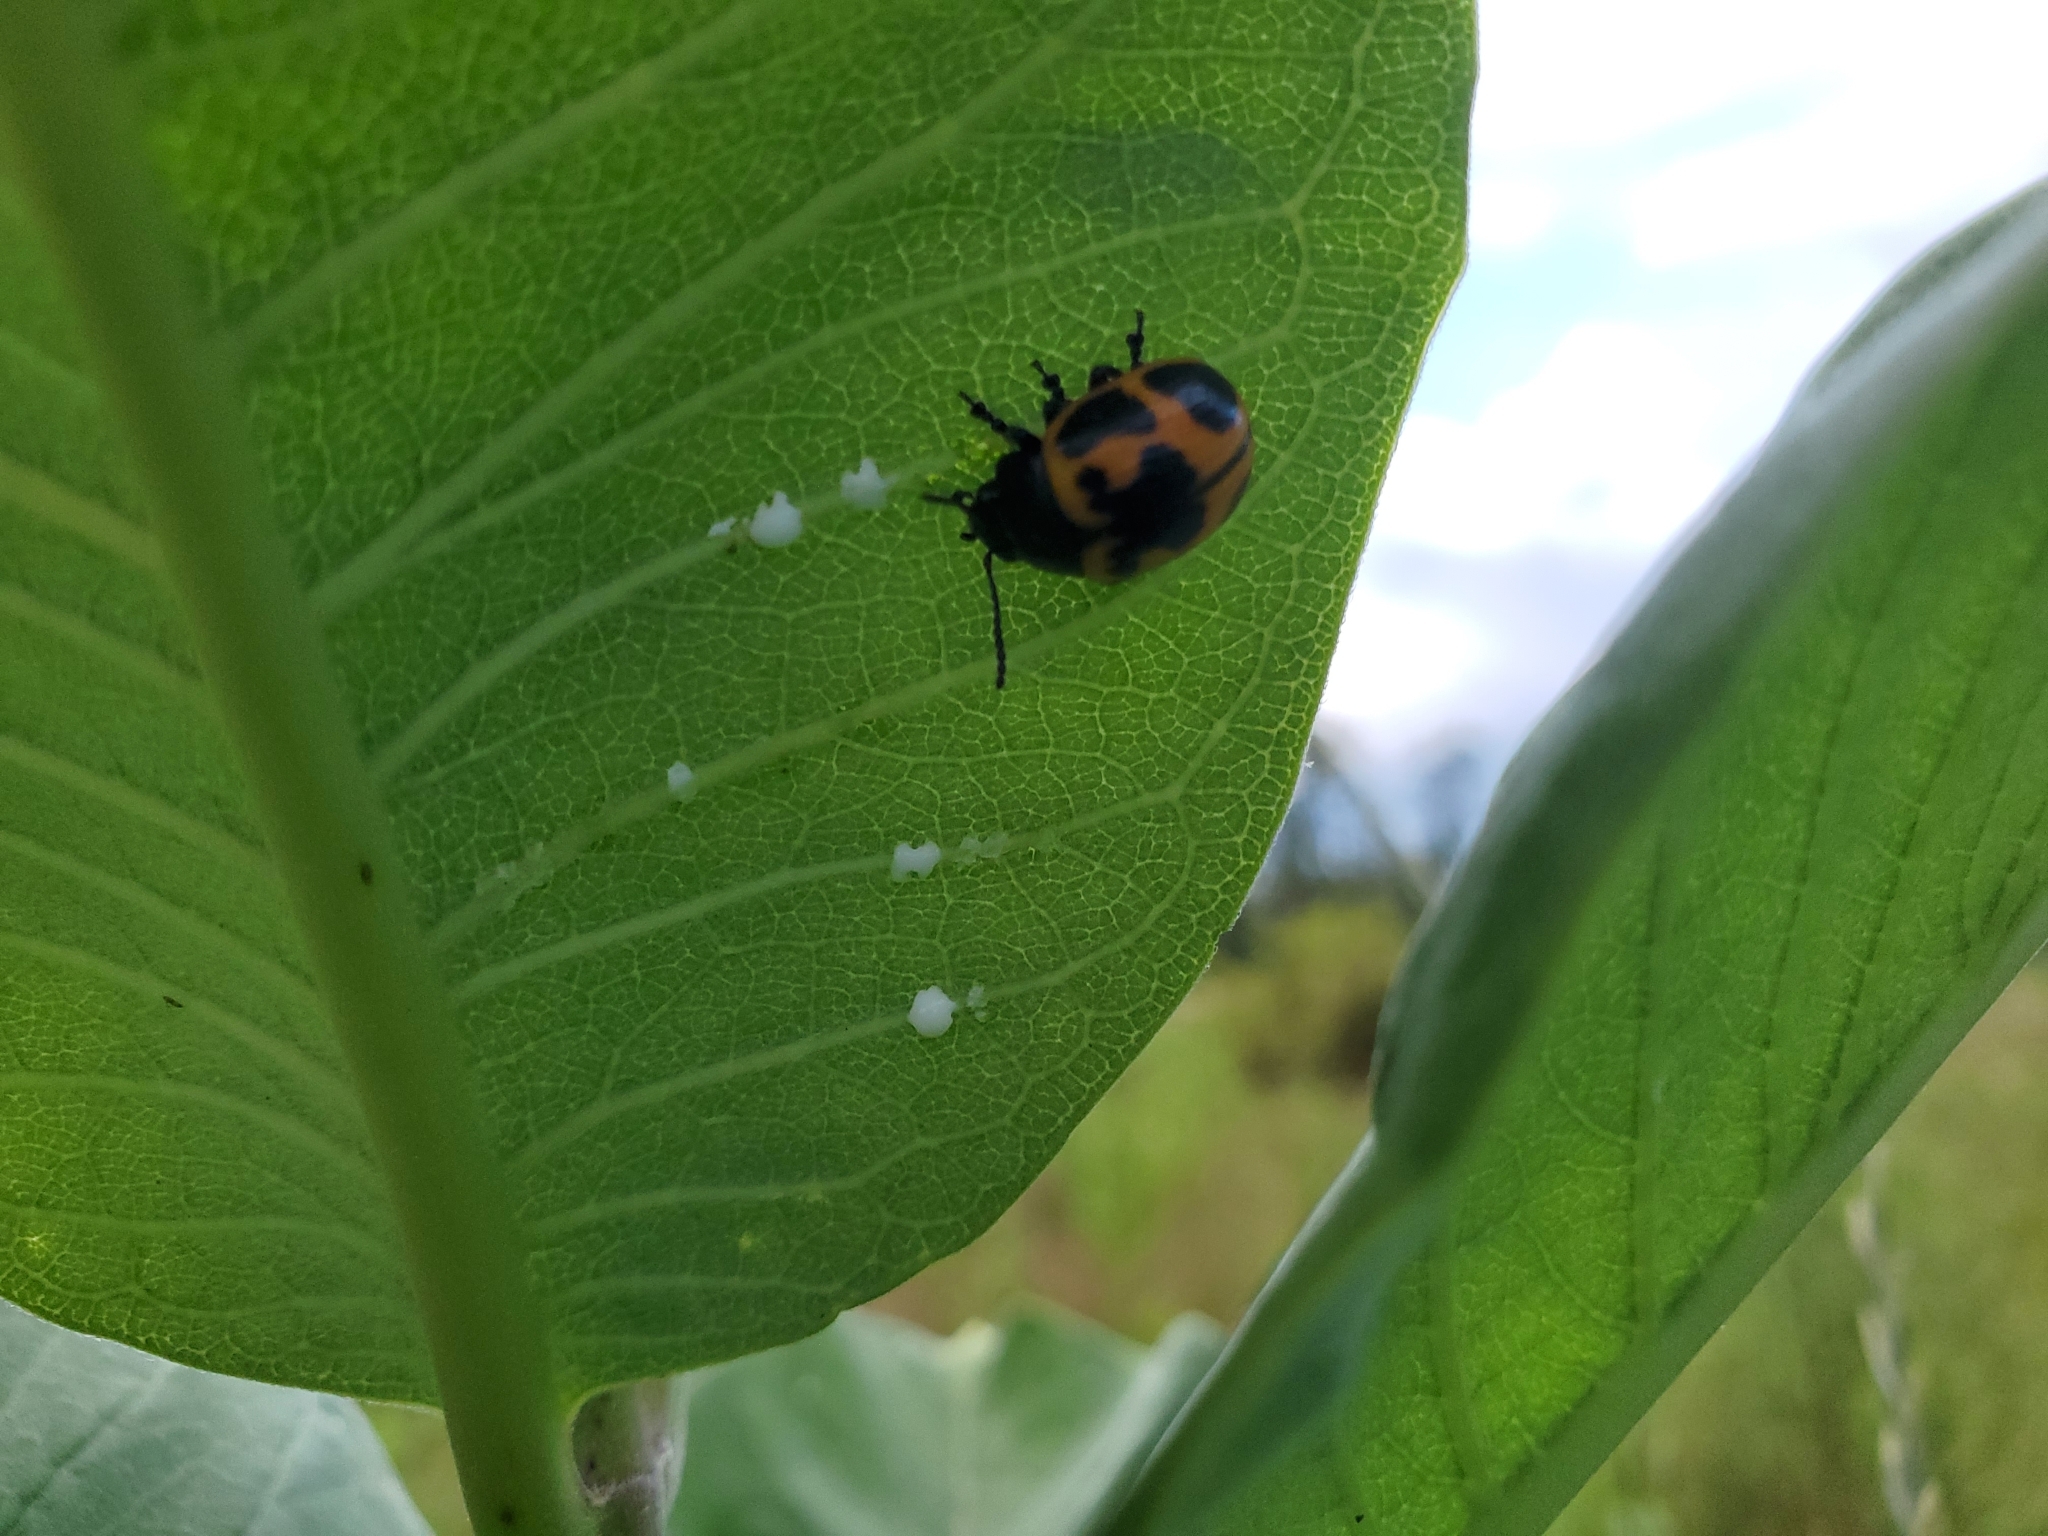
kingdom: Animalia
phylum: Arthropoda
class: Insecta
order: Coleoptera
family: Chrysomelidae
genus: Labidomera
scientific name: Labidomera clivicollis
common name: Swamp milkweed leaf beetle
